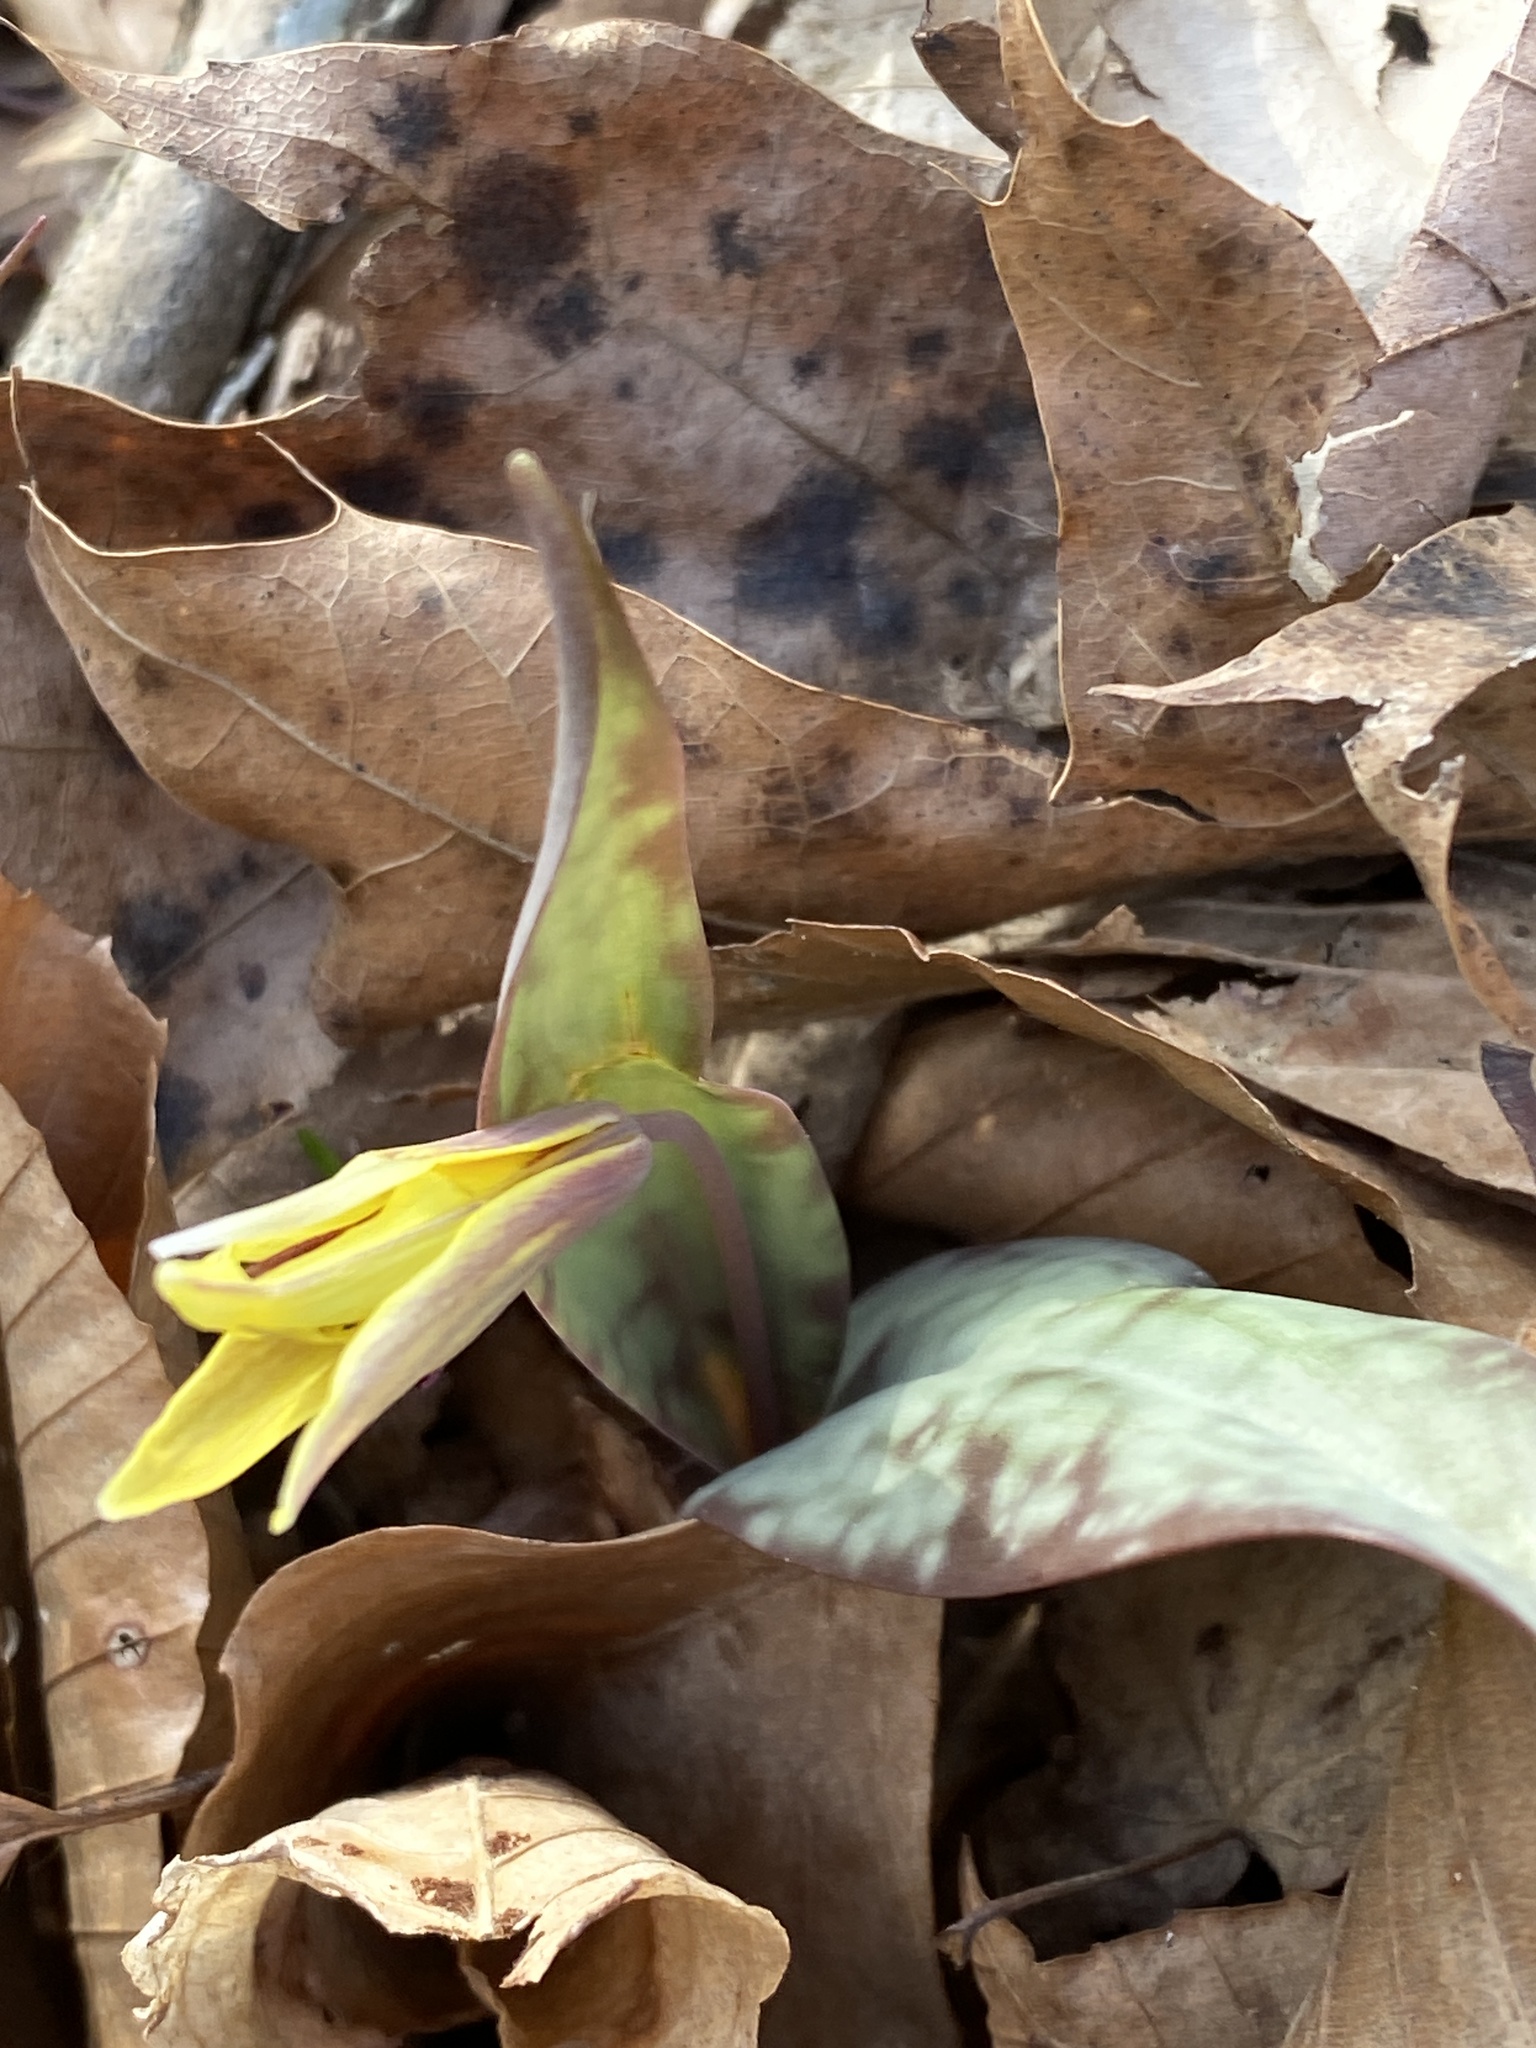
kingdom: Plantae
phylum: Tracheophyta
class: Liliopsida
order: Liliales
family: Liliaceae
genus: Erythronium
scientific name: Erythronium umbilicatum
